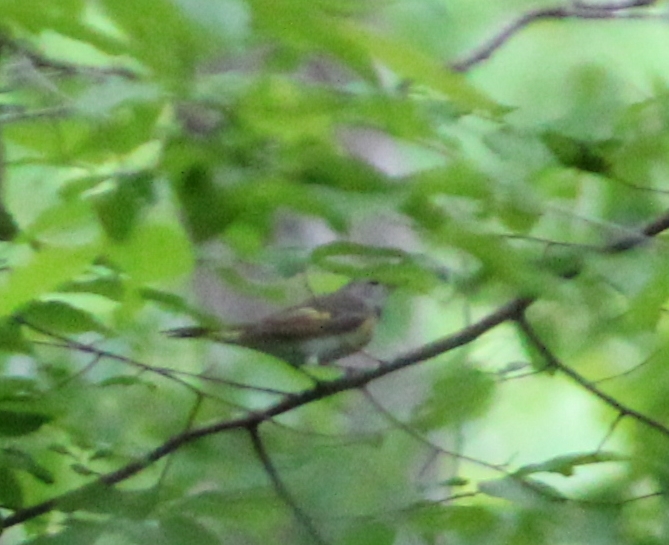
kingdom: Animalia
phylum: Chordata
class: Aves
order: Passeriformes
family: Parulidae
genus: Setophaga
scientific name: Setophaga ruticilla
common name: American redstart
